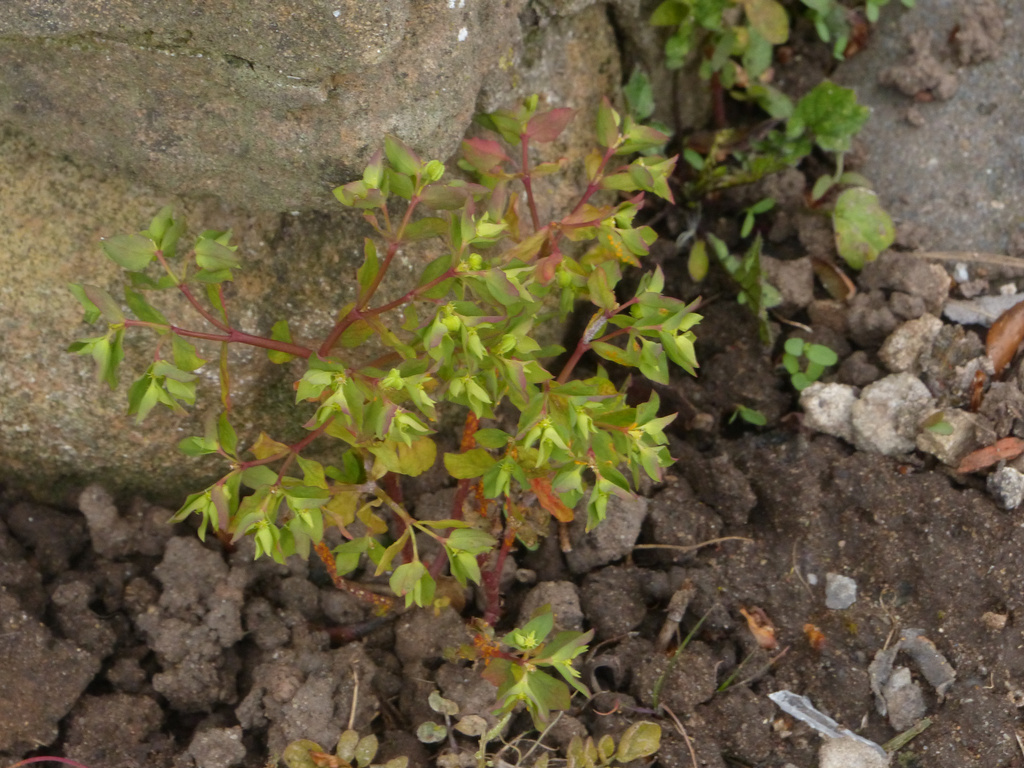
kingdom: Plantae
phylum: Tracheophyta
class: Magnoliopsida
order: Malpighiales
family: Euphorbiaceae
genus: Euphorbia
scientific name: Euphorbia peplus
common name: Petty spurge
